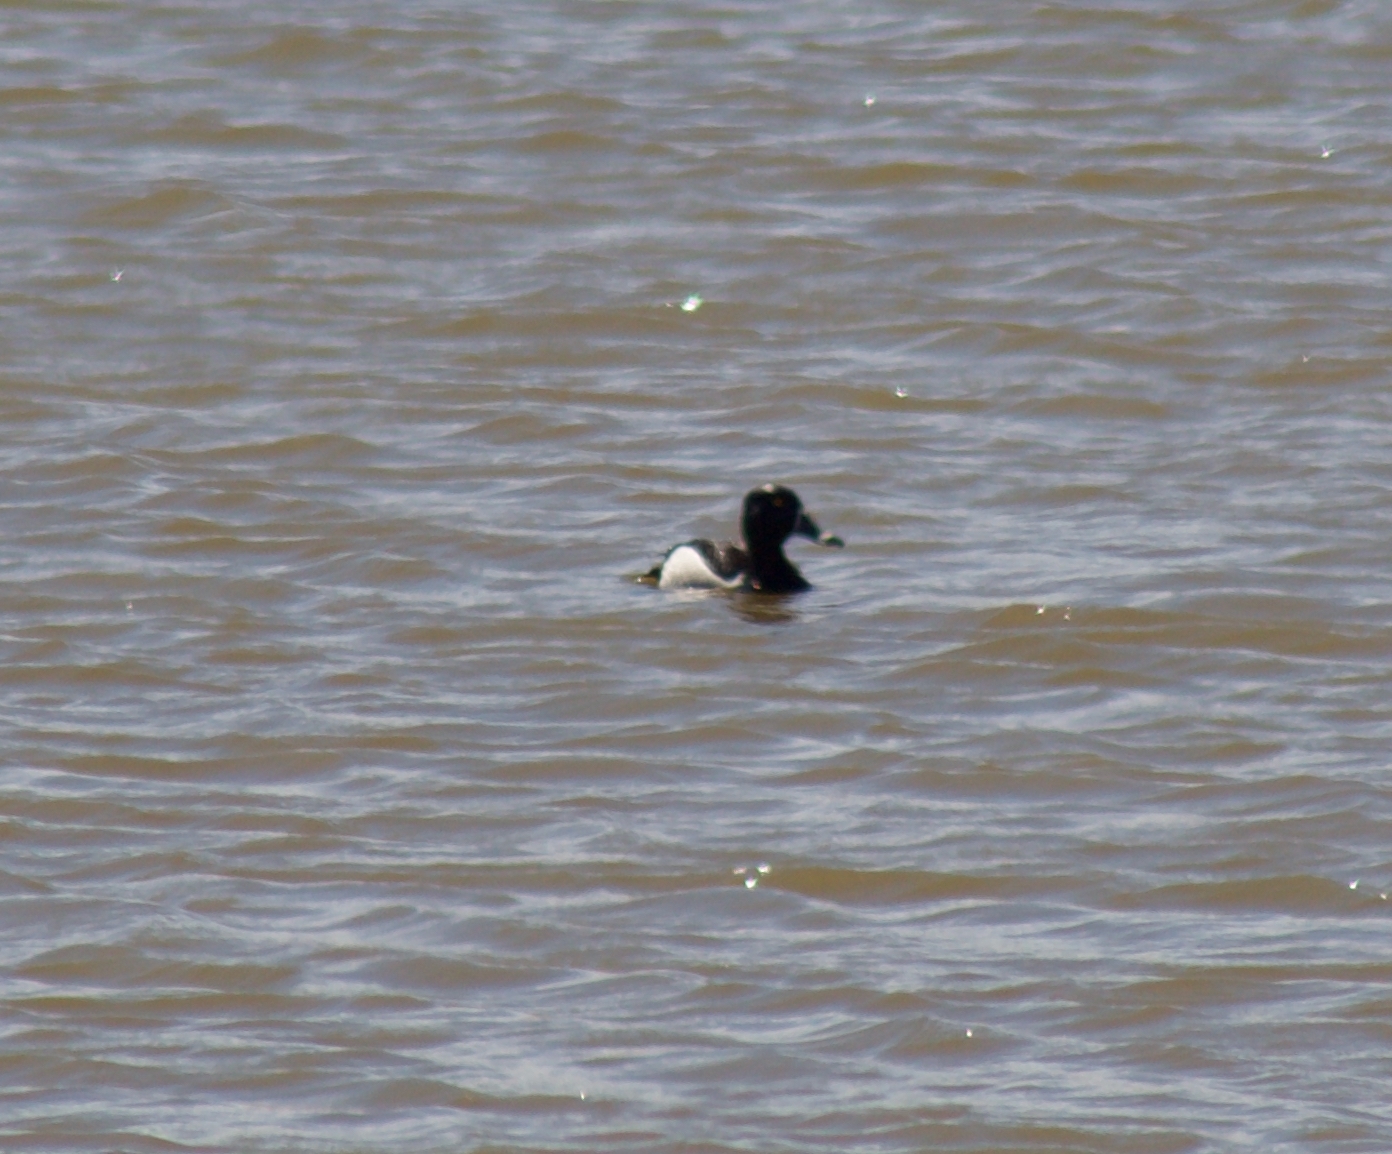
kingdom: Animalia
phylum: Chordata
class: Aves
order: Anseriformes
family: Anatidae
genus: Aythya
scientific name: Aythya collaris
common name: Ring-necked duck
